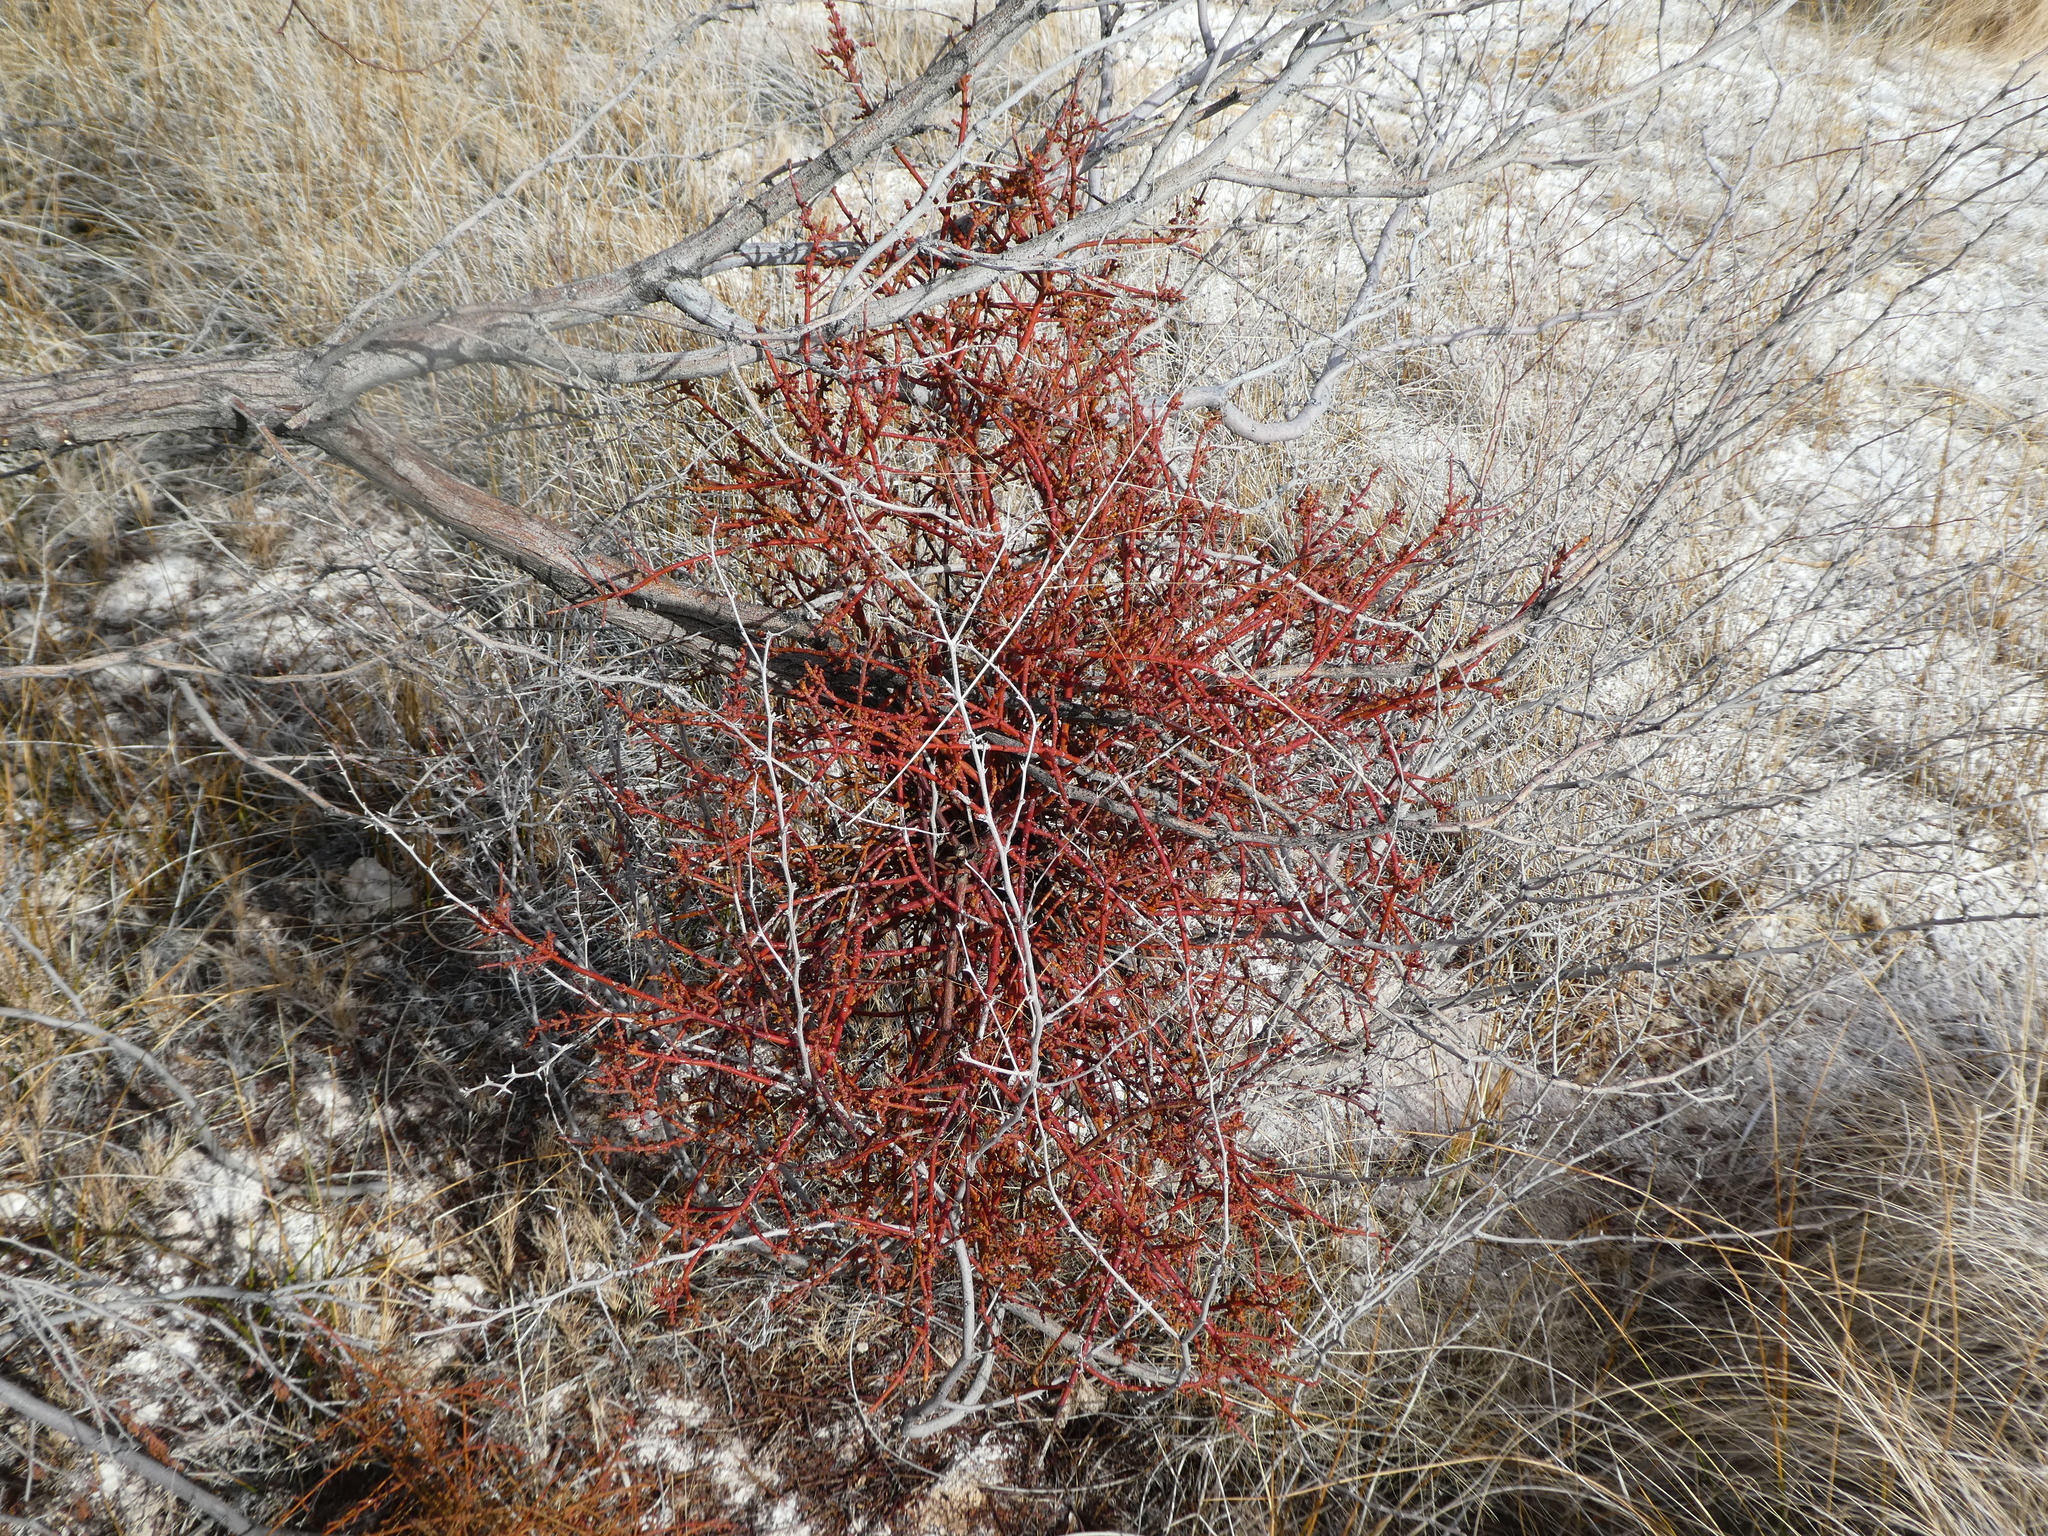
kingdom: Plantae
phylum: Tracheophyta
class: Magnoliopsida
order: Santalales
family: Viscaceae
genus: Phoradendron
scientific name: Phoradendron californicum
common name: Acacia mistletoe
